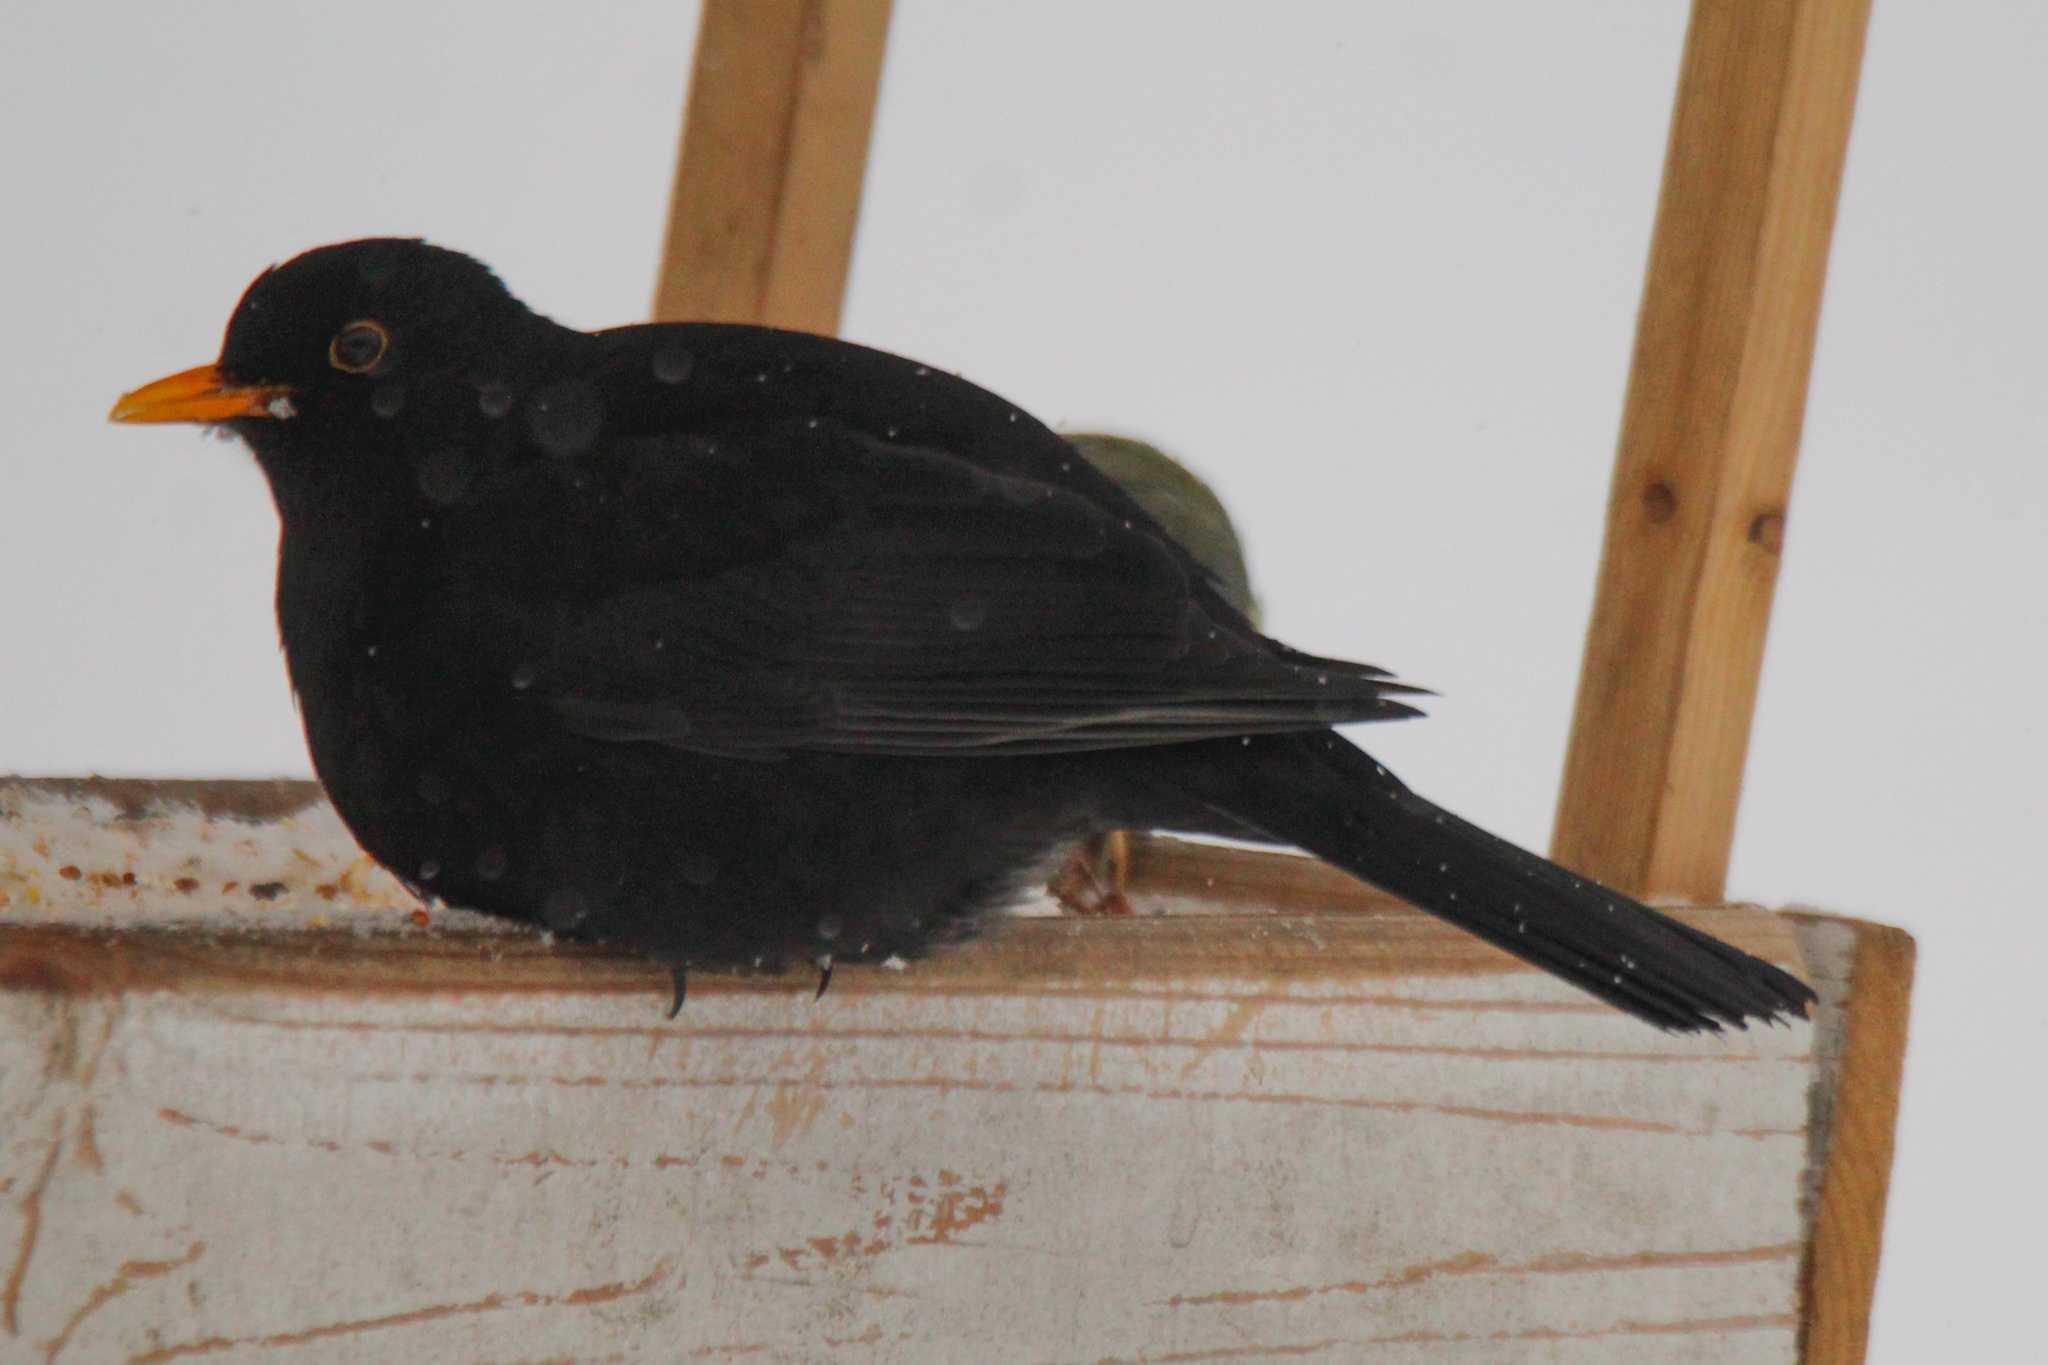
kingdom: Animalia
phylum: Chordata
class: Aves
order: Passeriformes
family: Turdidae
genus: Turdus
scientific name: Turdus merula
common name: Common blackbird
